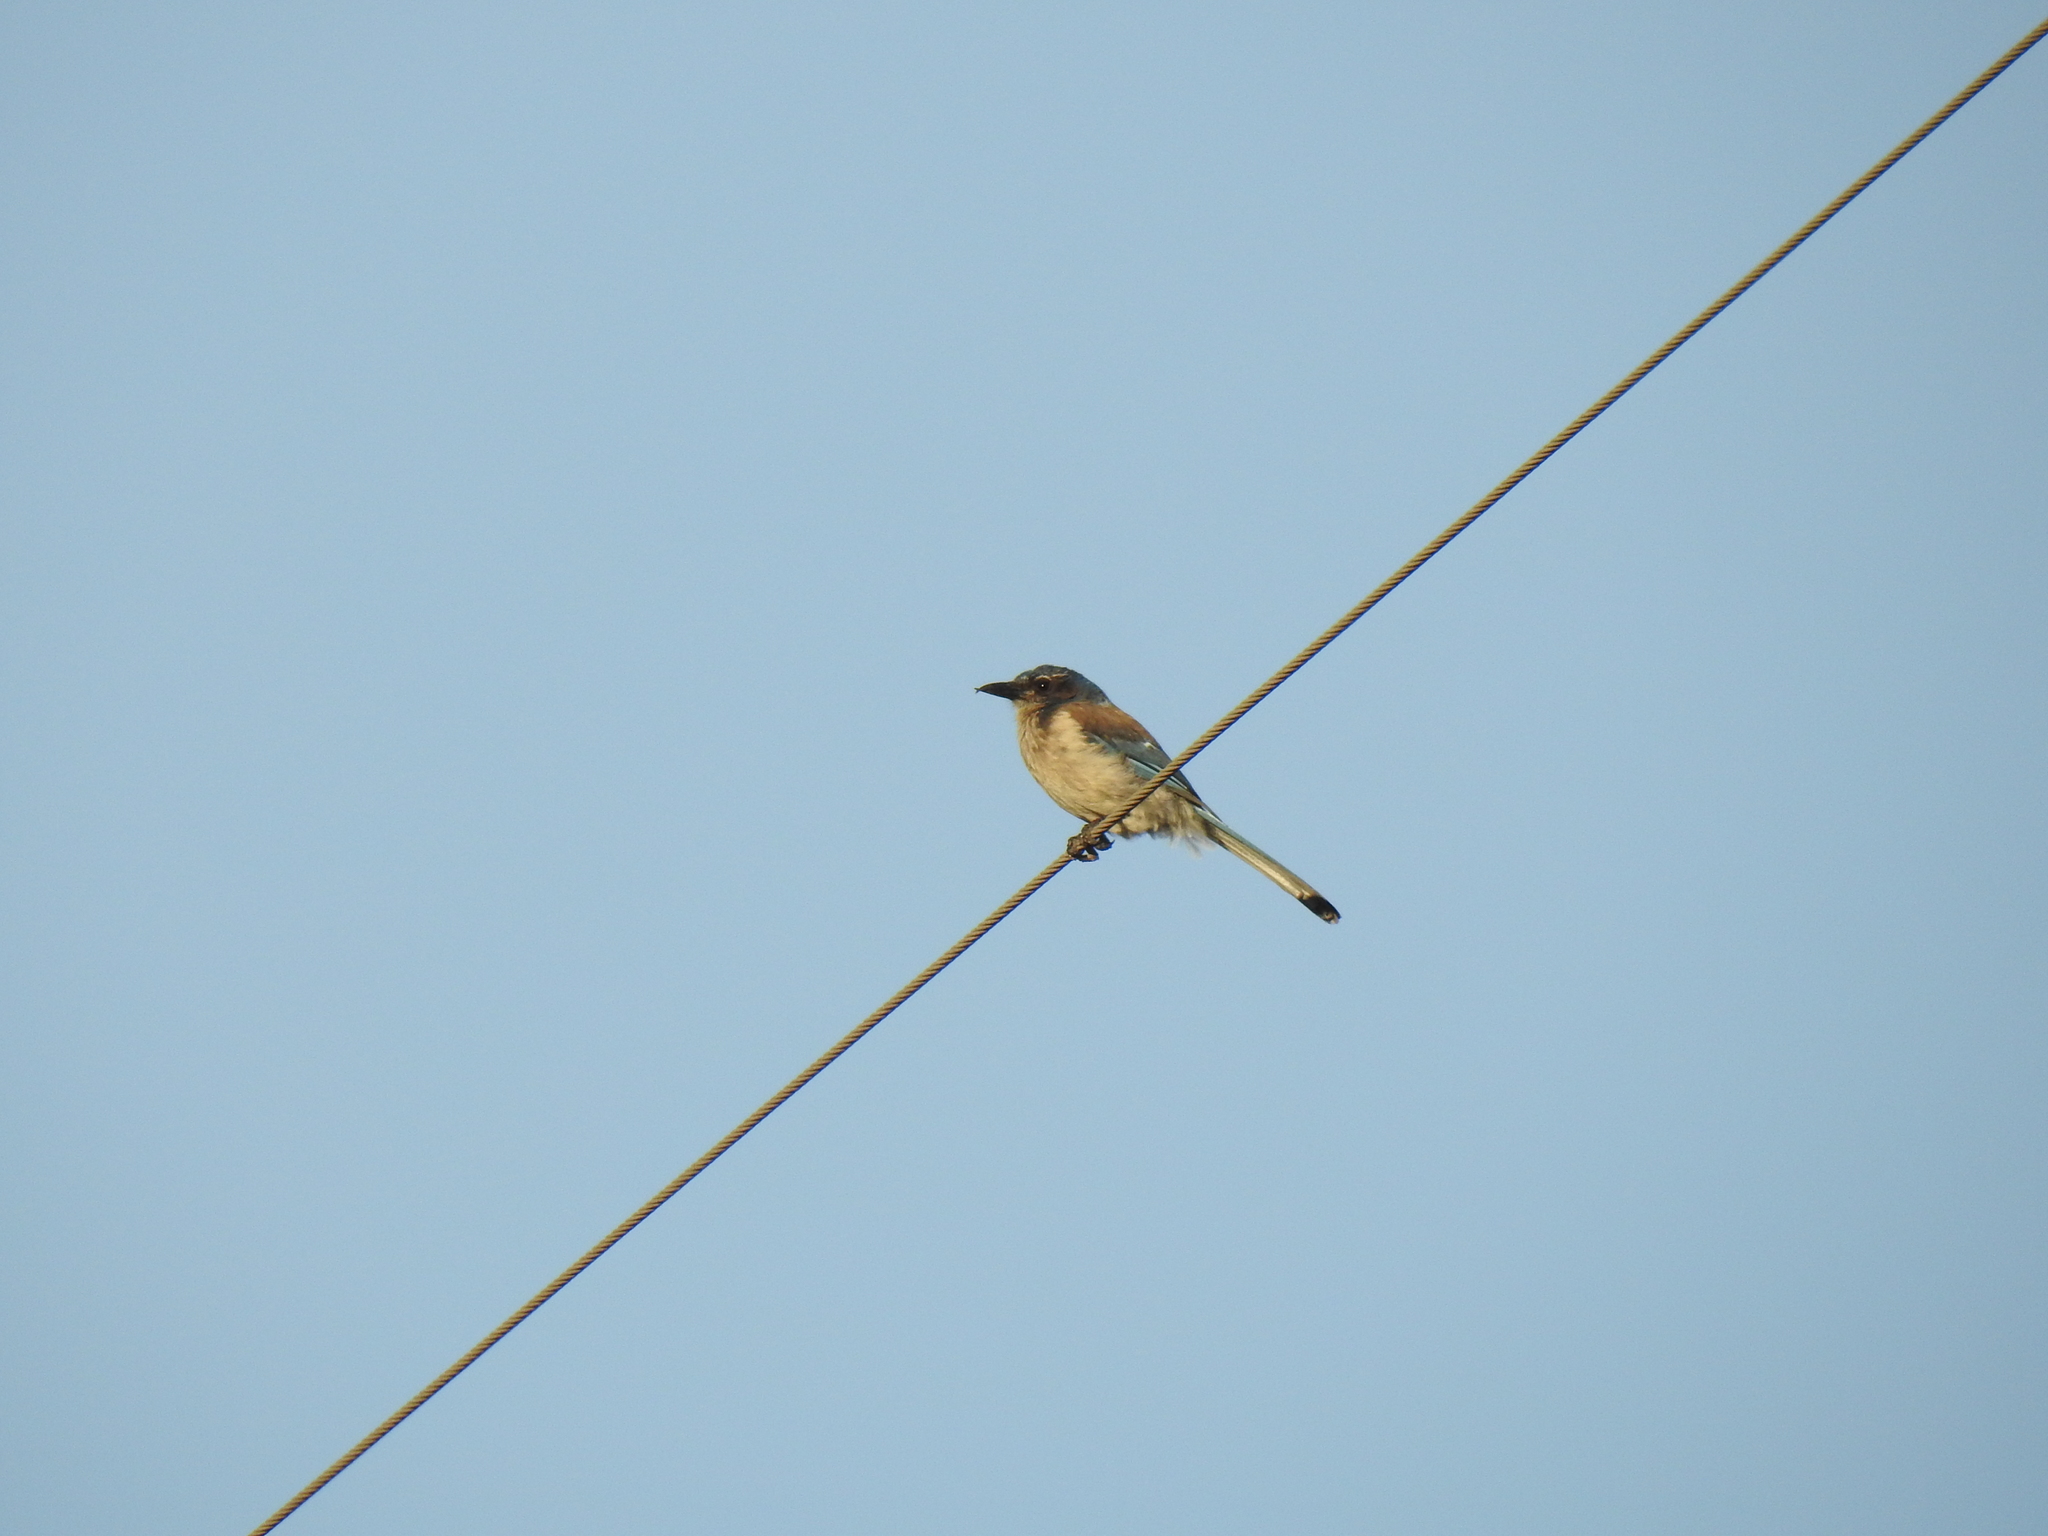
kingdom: Animalia
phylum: Chordata
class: Aves
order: Passeriformes
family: Corvidae
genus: Aphelocoma
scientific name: Aphelocoma californica
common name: California scrub-jay
